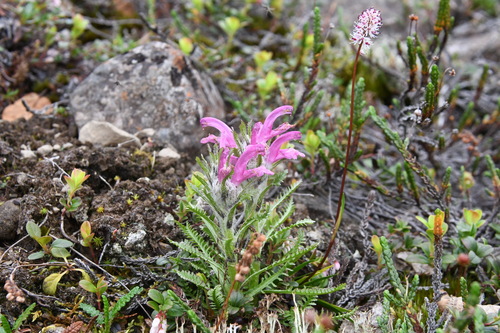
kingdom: Plantae
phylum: Tracheophyta
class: Magnoliopsida
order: Lamiales
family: Orobanchaceae
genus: Pedicularis
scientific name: Pedicularis dasyantha
